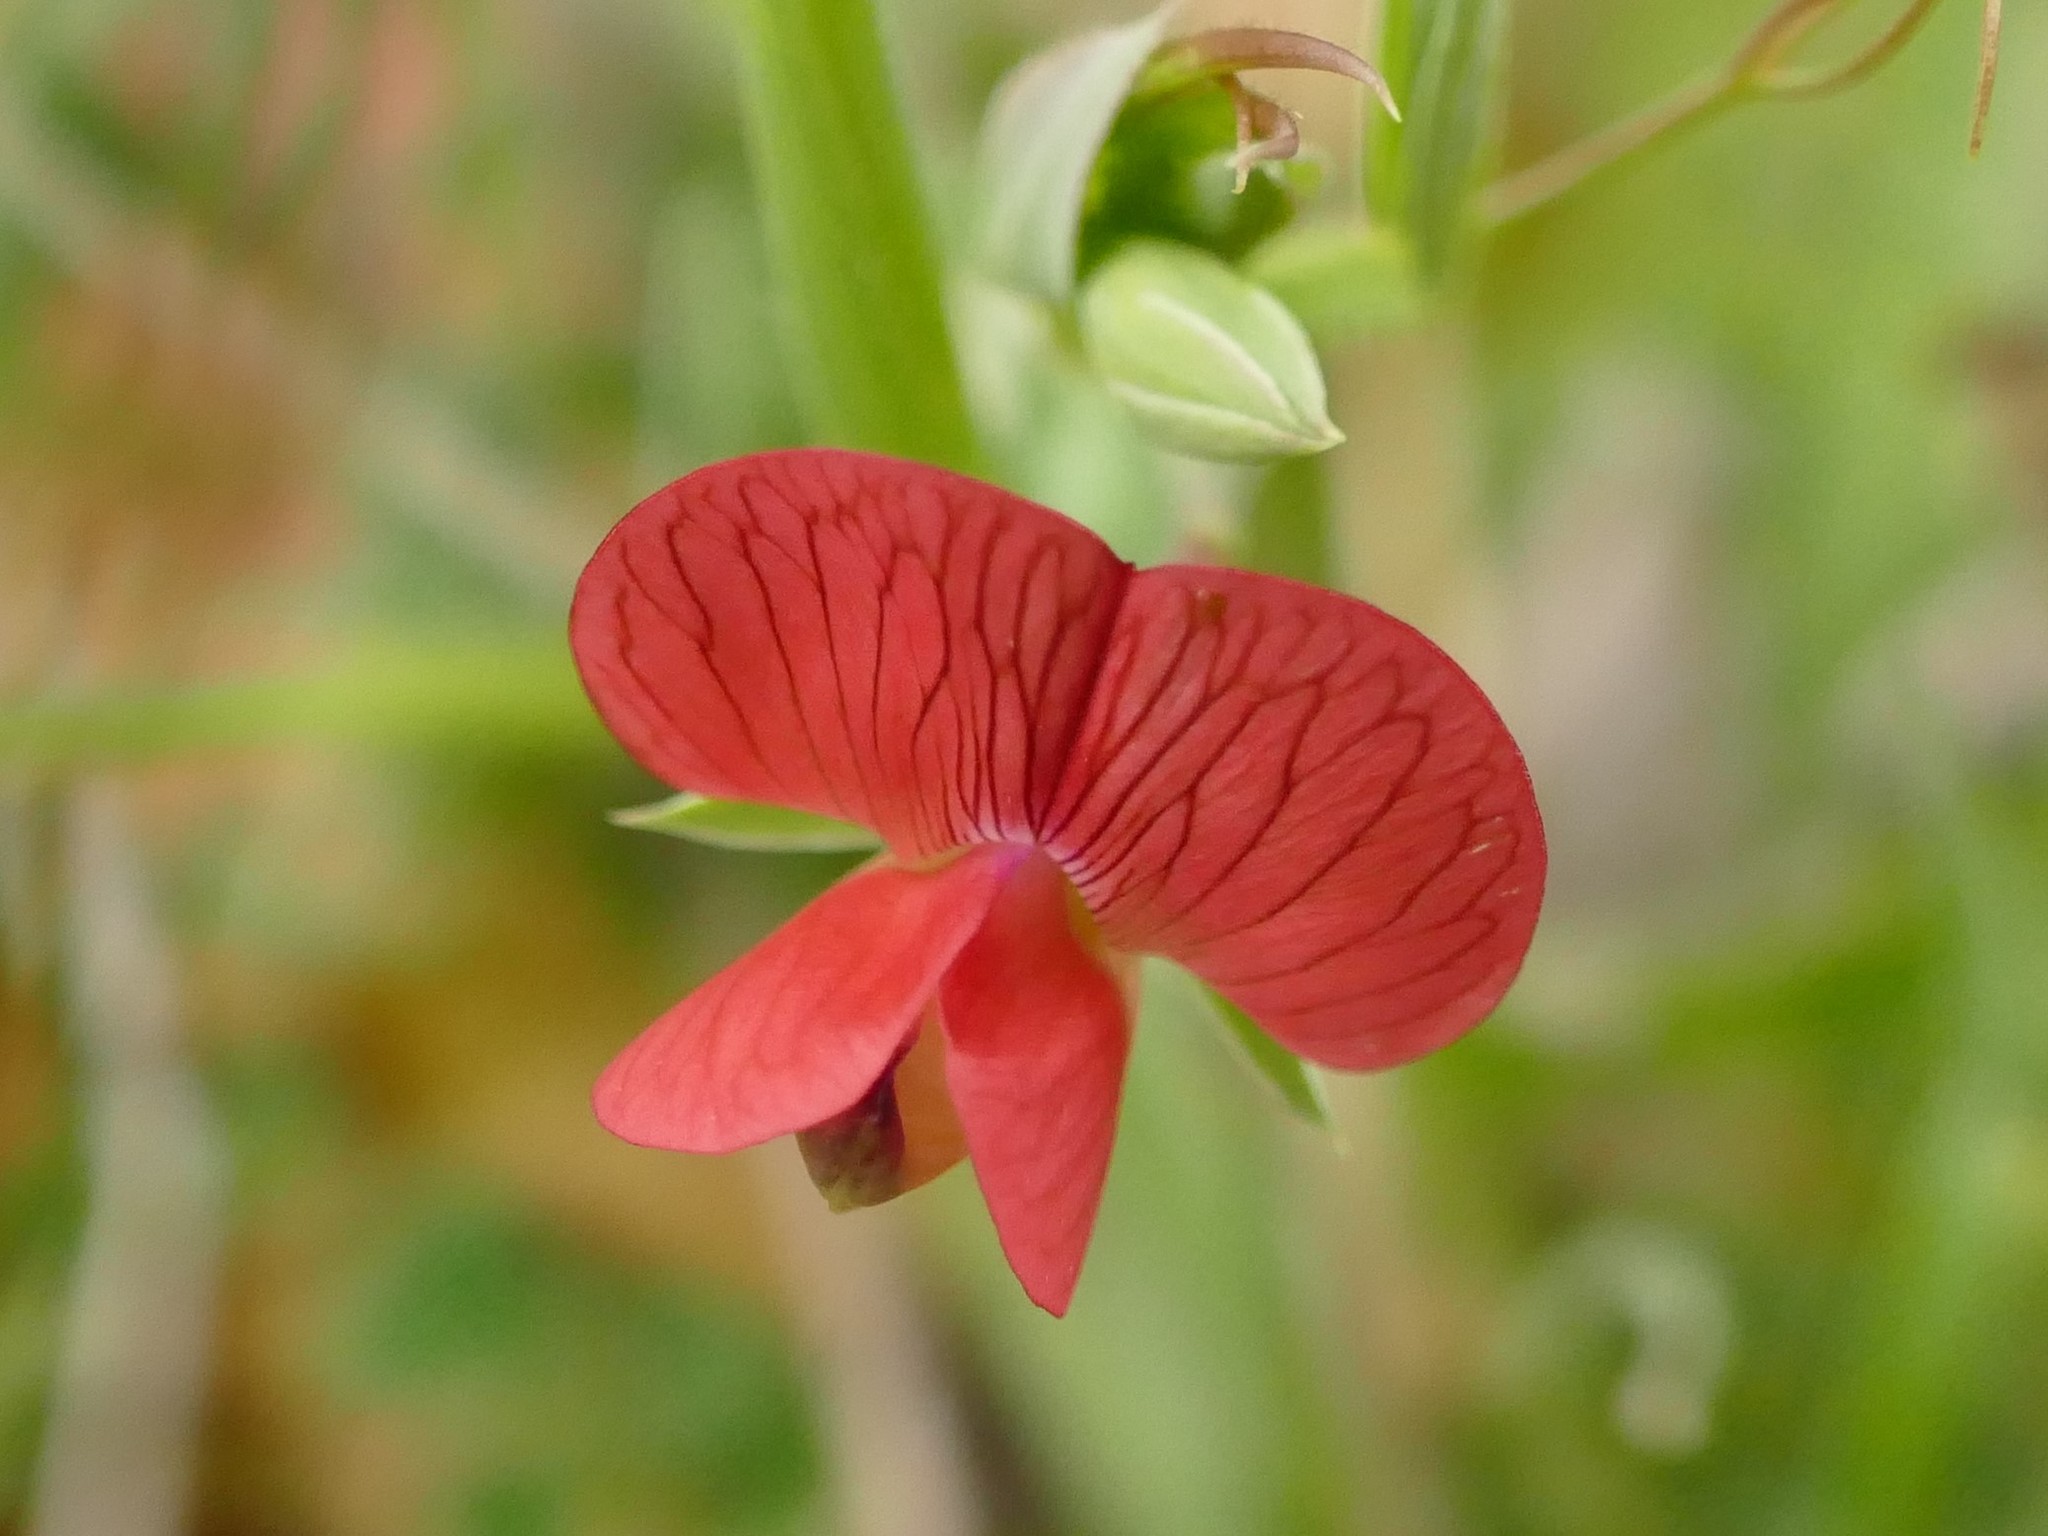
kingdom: Plantae
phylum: Tracheophyta
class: Magnoliopsida
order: Fabales
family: Fabaceae
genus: Lathyrus
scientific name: Lathyrus cicera
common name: Red vetchling
